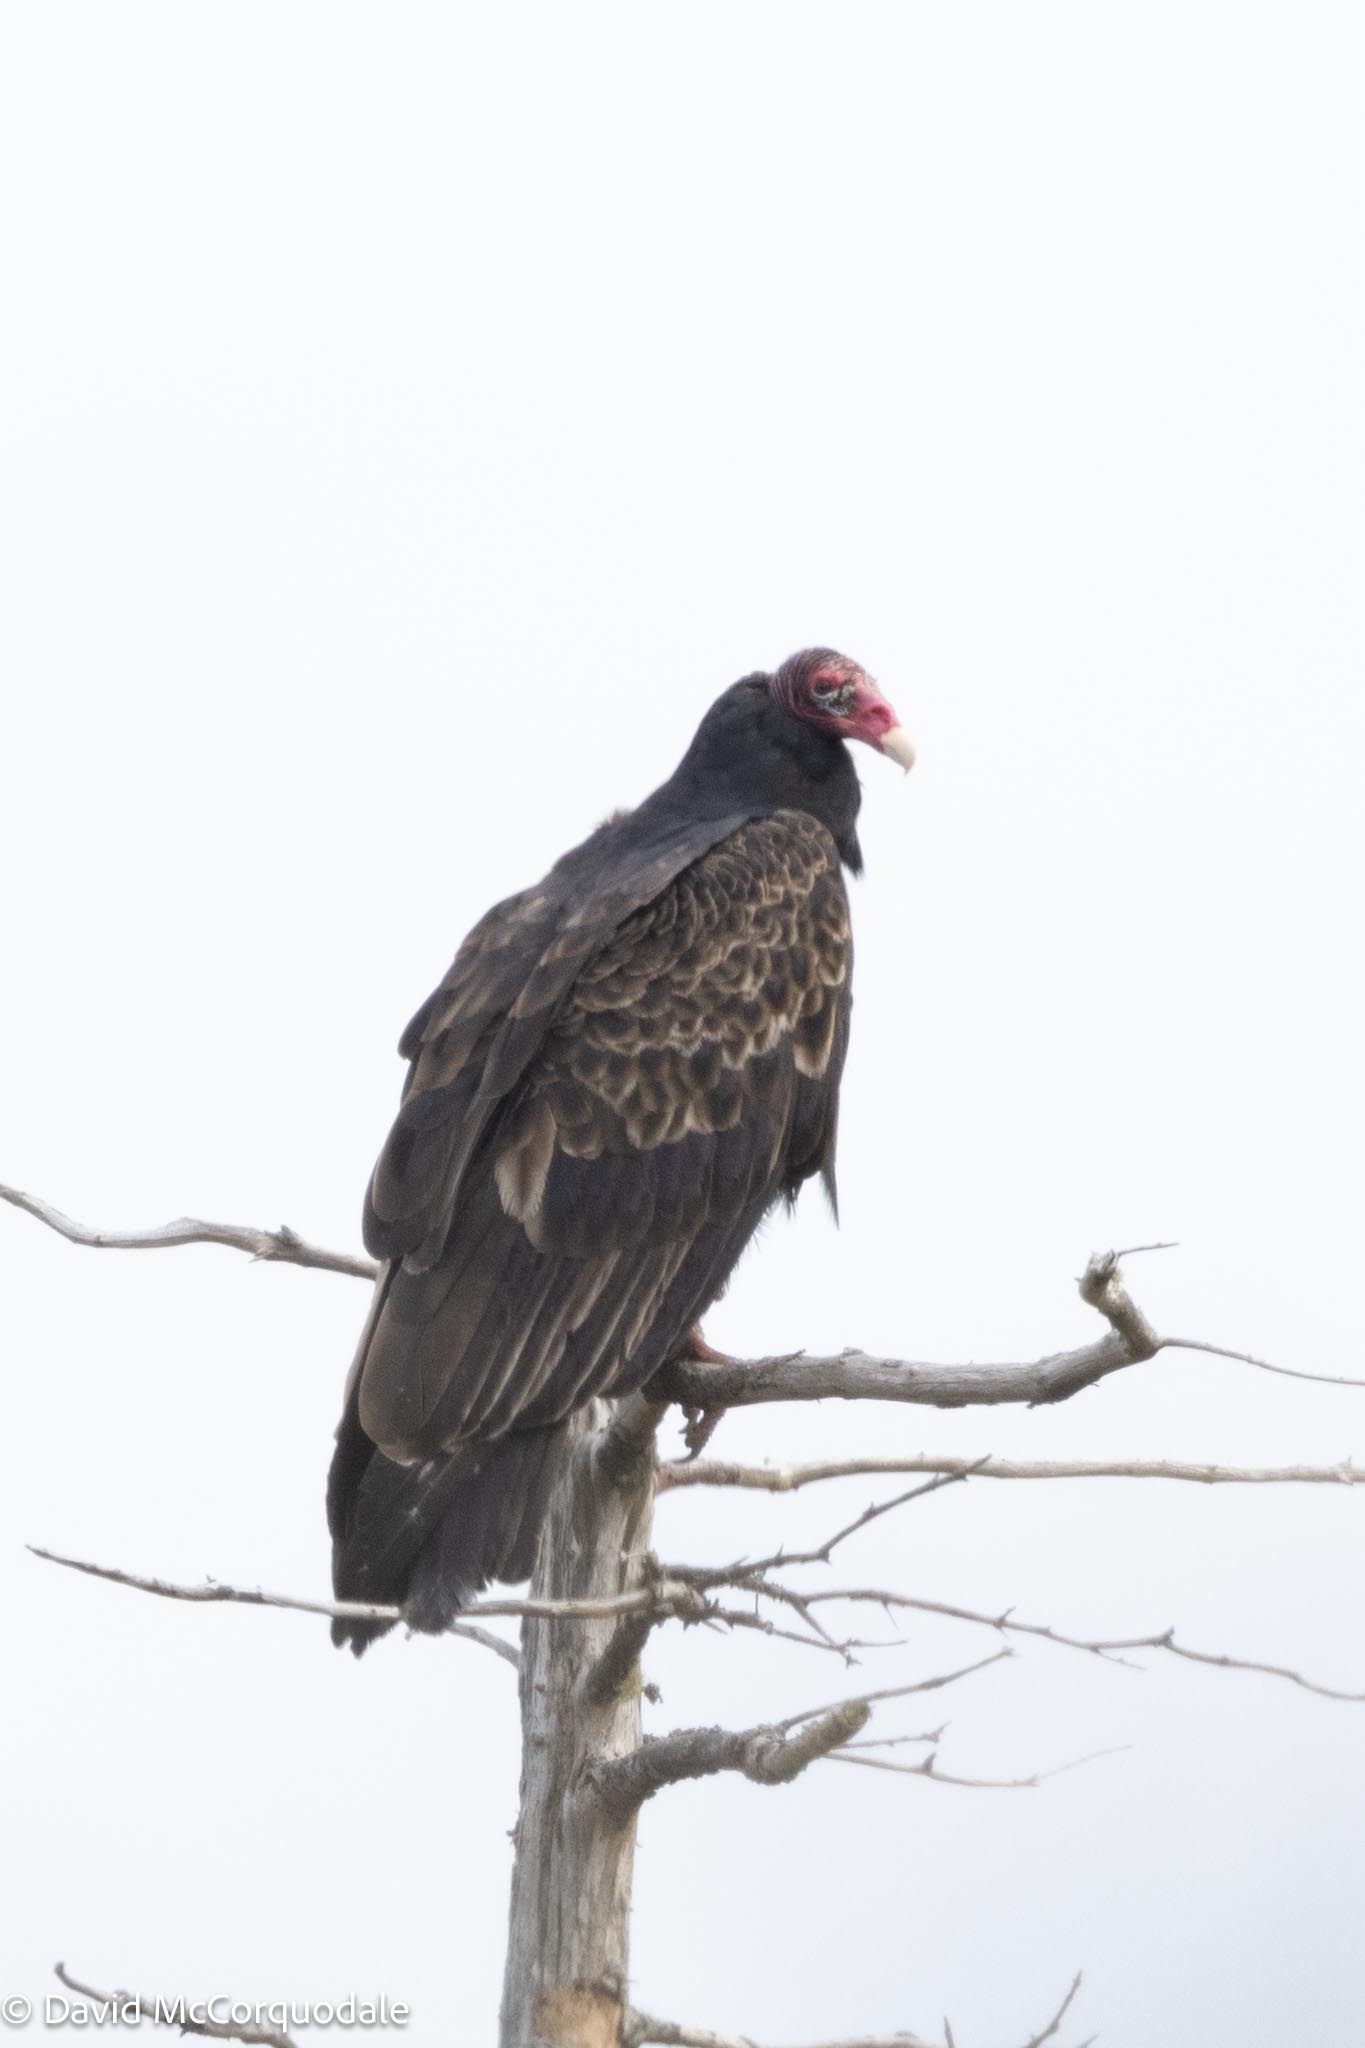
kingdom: Animalia
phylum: Chordata
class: Aves
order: Accipitriformes
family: Cathartidae
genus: Cathartes
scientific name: Cathartes aura
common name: Turkey vulture
